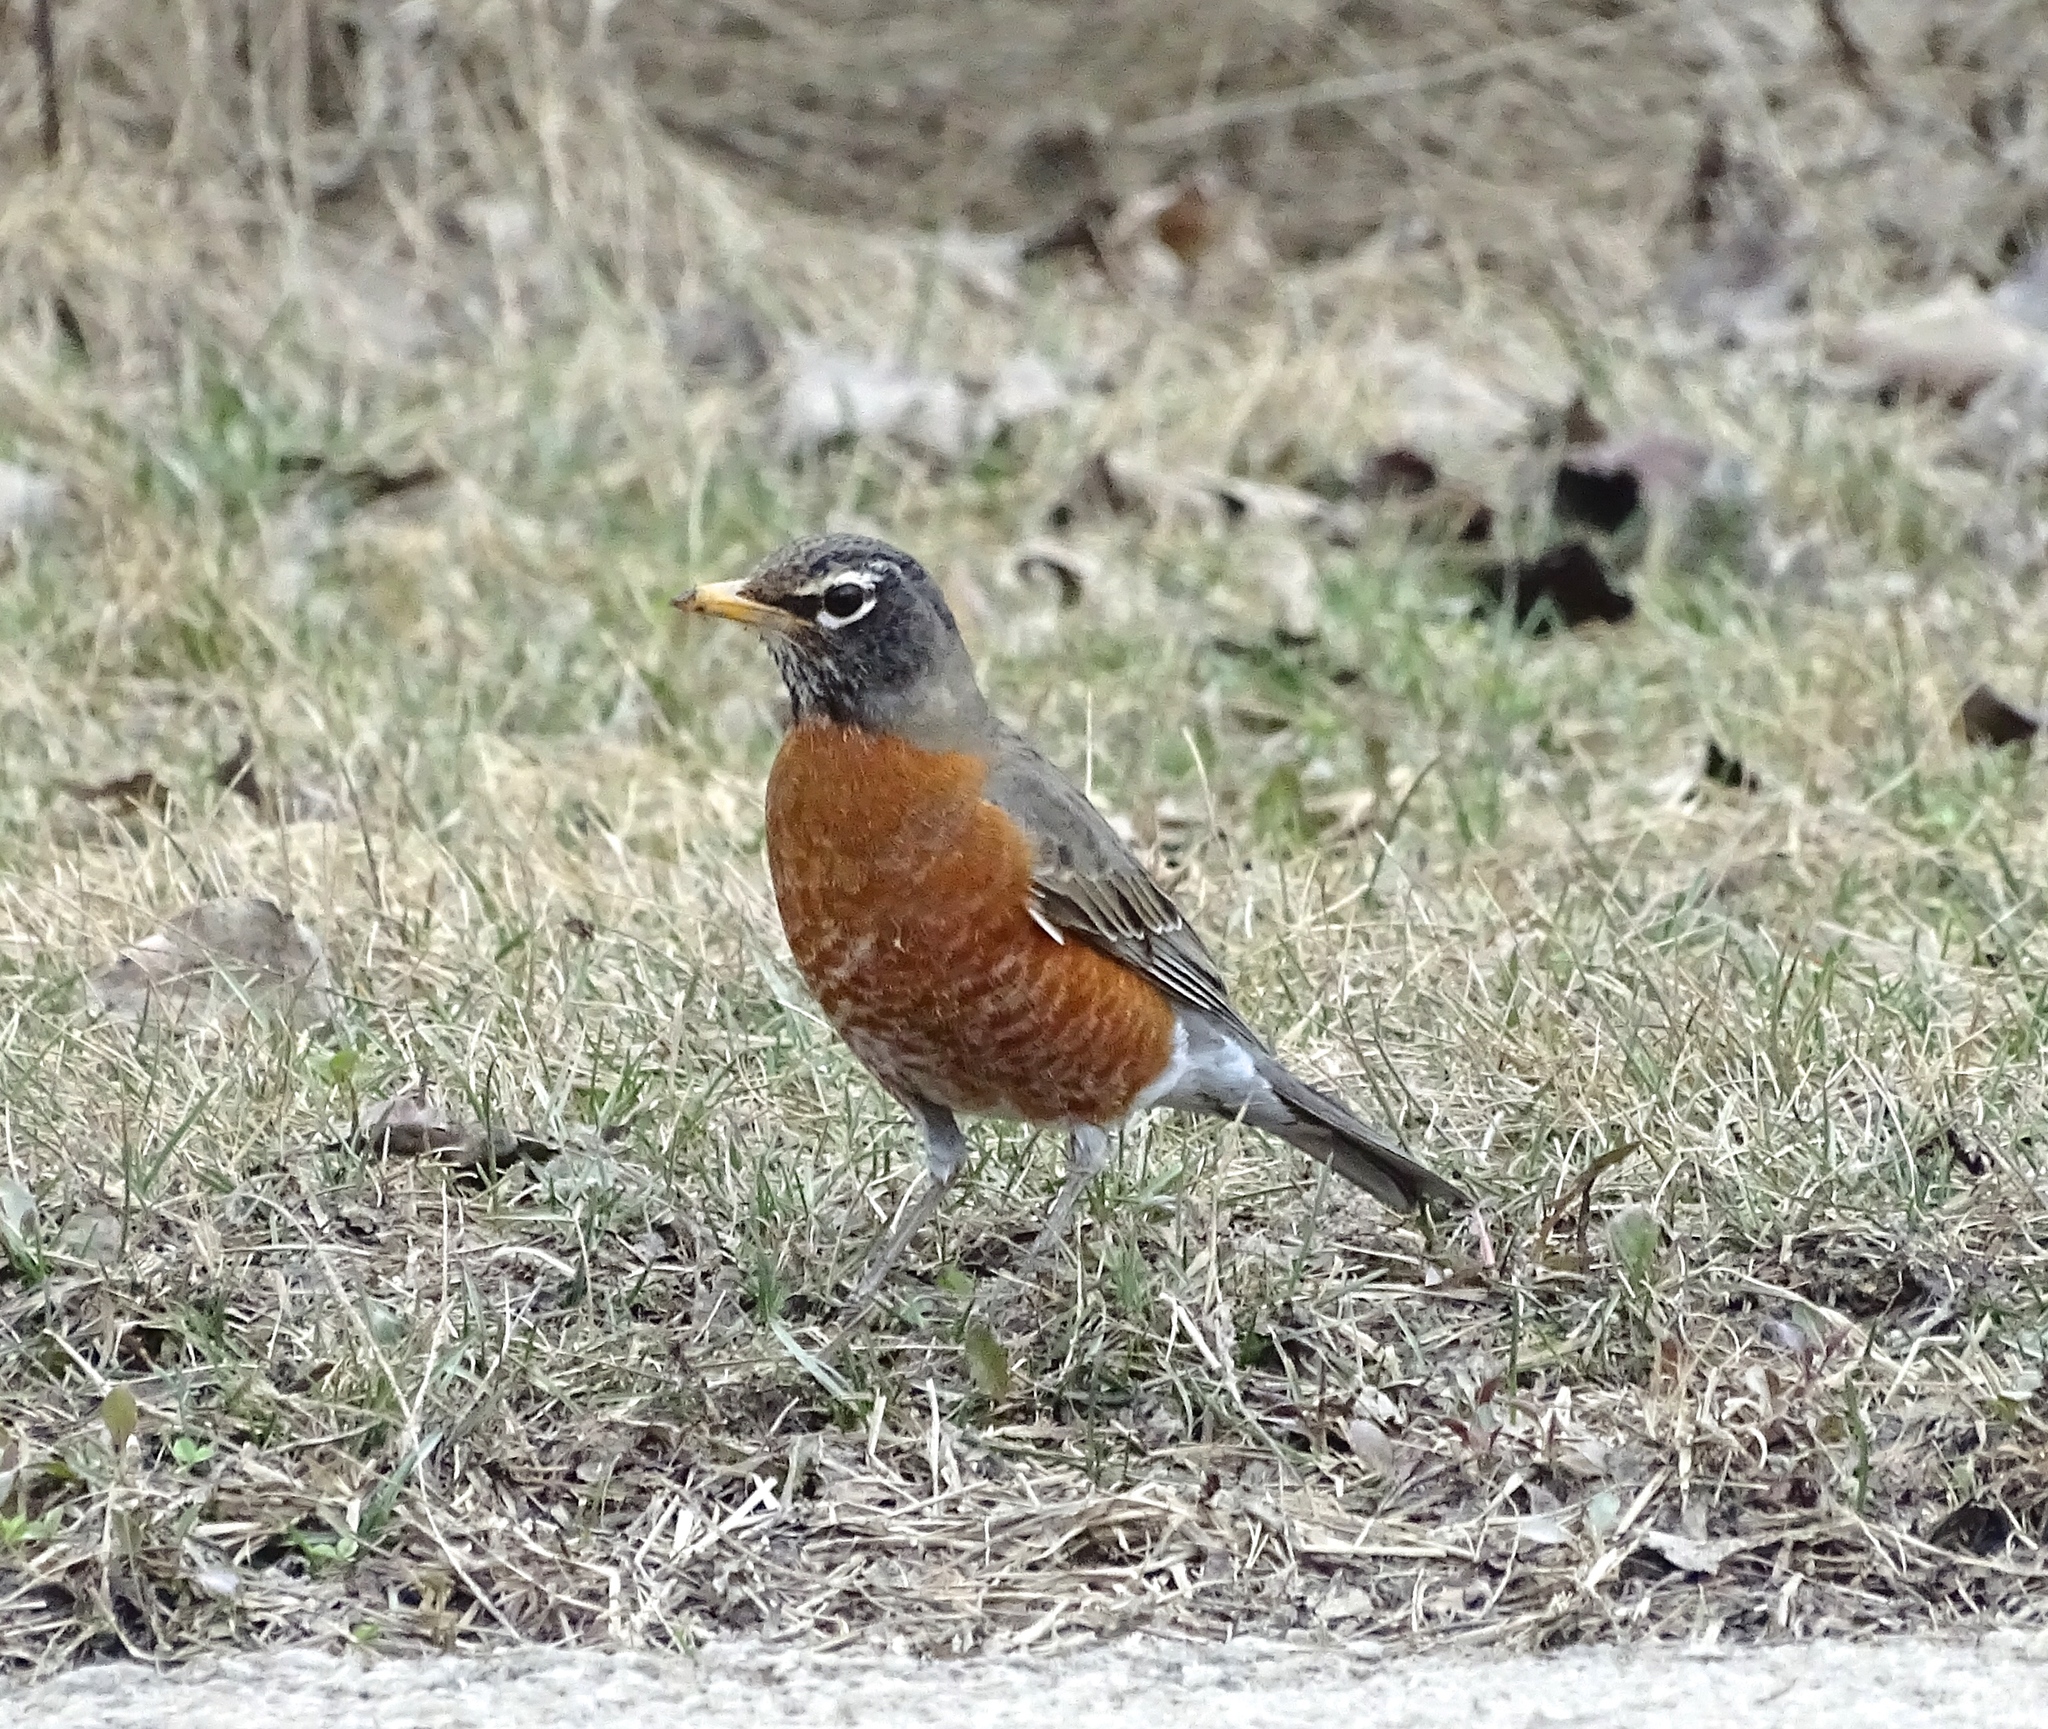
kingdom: Animalia
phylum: Chordata
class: Aves
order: Passeriformes
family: Turdidae
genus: Turdus
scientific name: Turdus migratorius
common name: American robin
